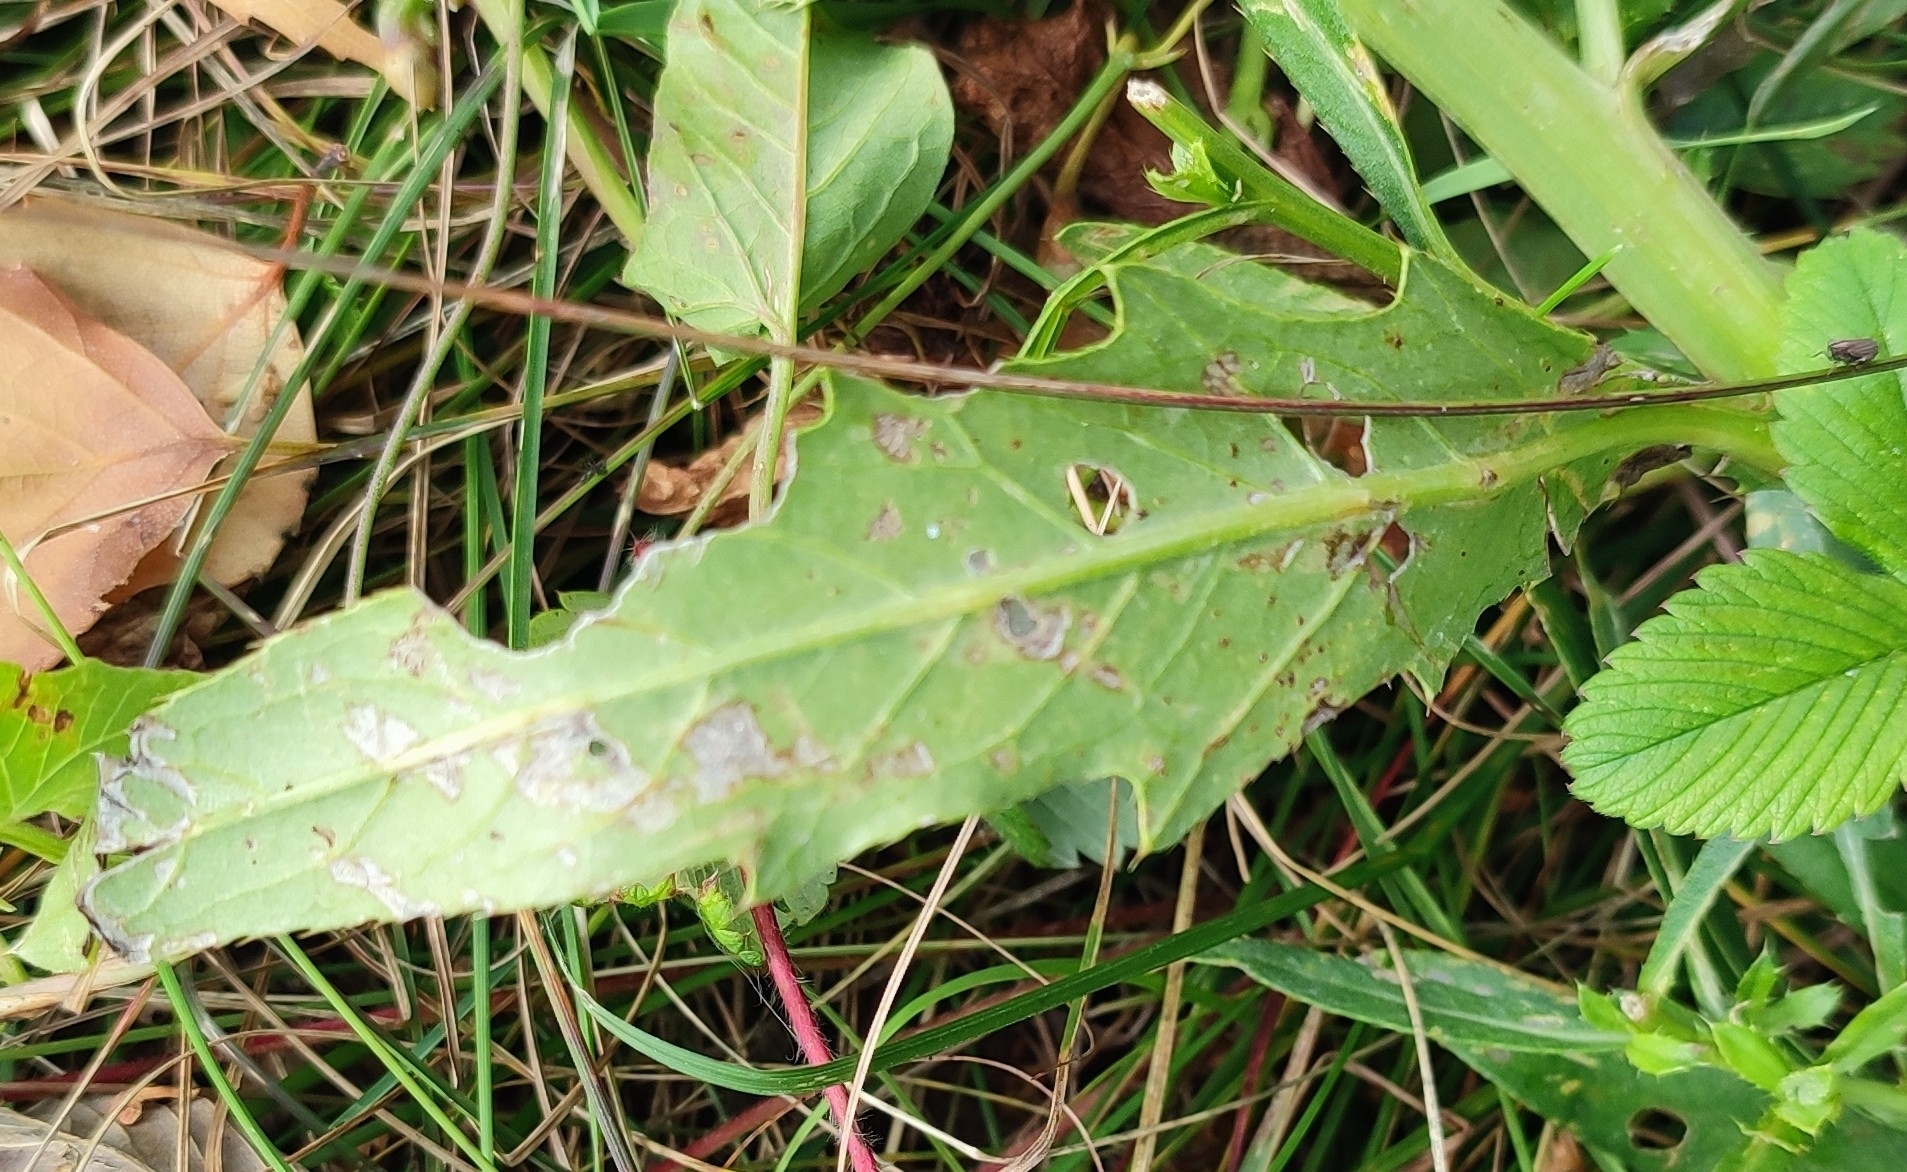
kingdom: Plantae
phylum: Tracheophyta
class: Magnoliopsida
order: Asterales
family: Asteraceae
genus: Cirsium
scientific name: Cirsium arvense
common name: Creeping thistle
